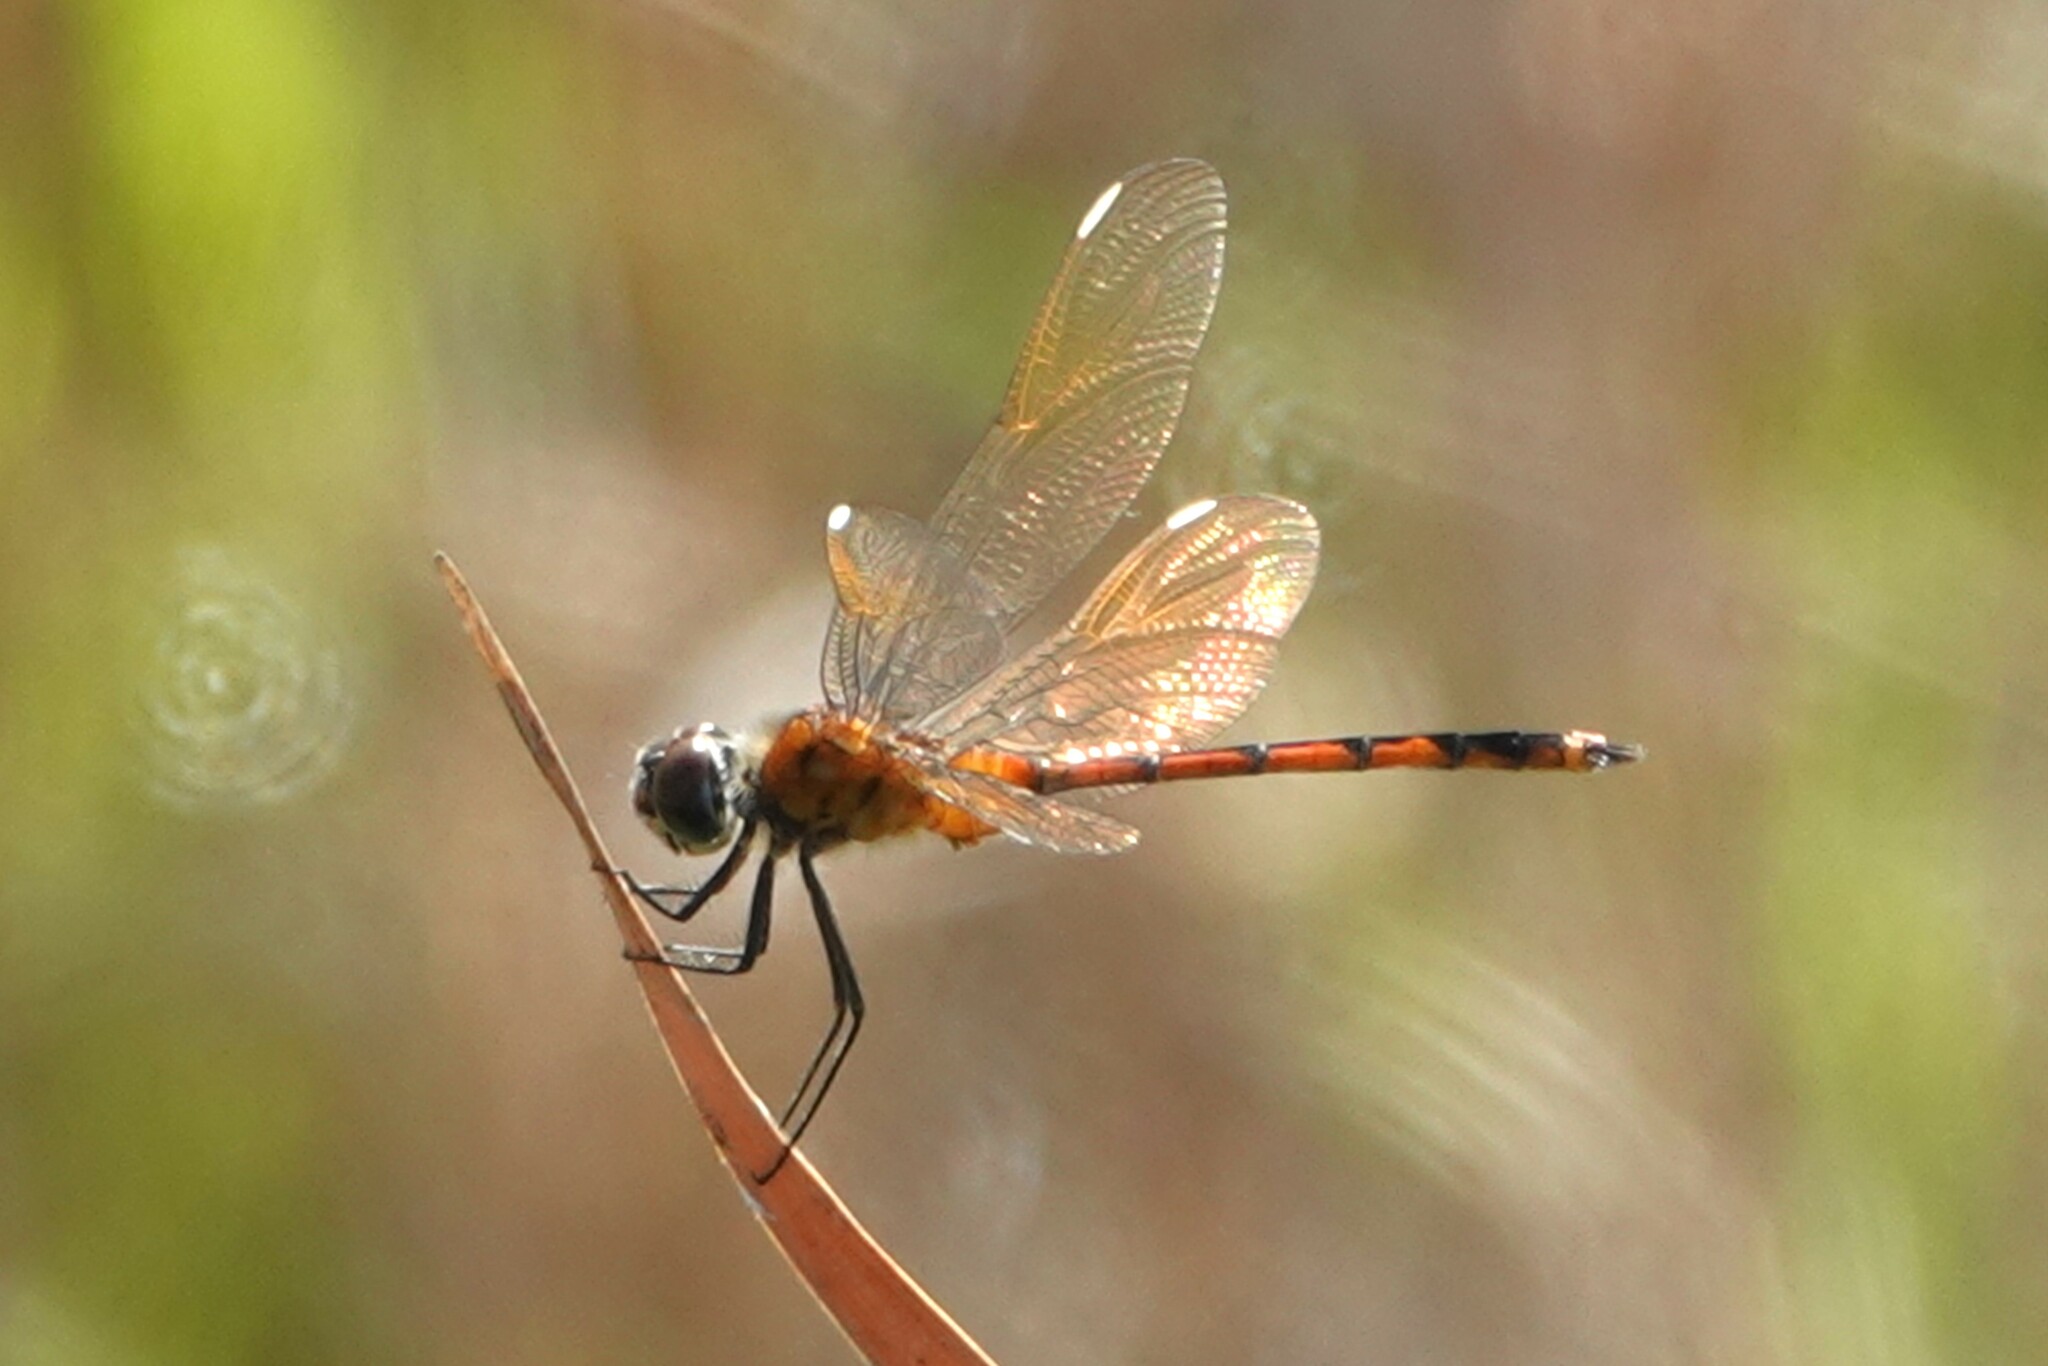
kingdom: Animalia
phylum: Arthropoda
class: Insecta
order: Odonata
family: Libellulidae
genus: Brachymesia
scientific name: Brachymesia gravida
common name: Four-spotted pennant
